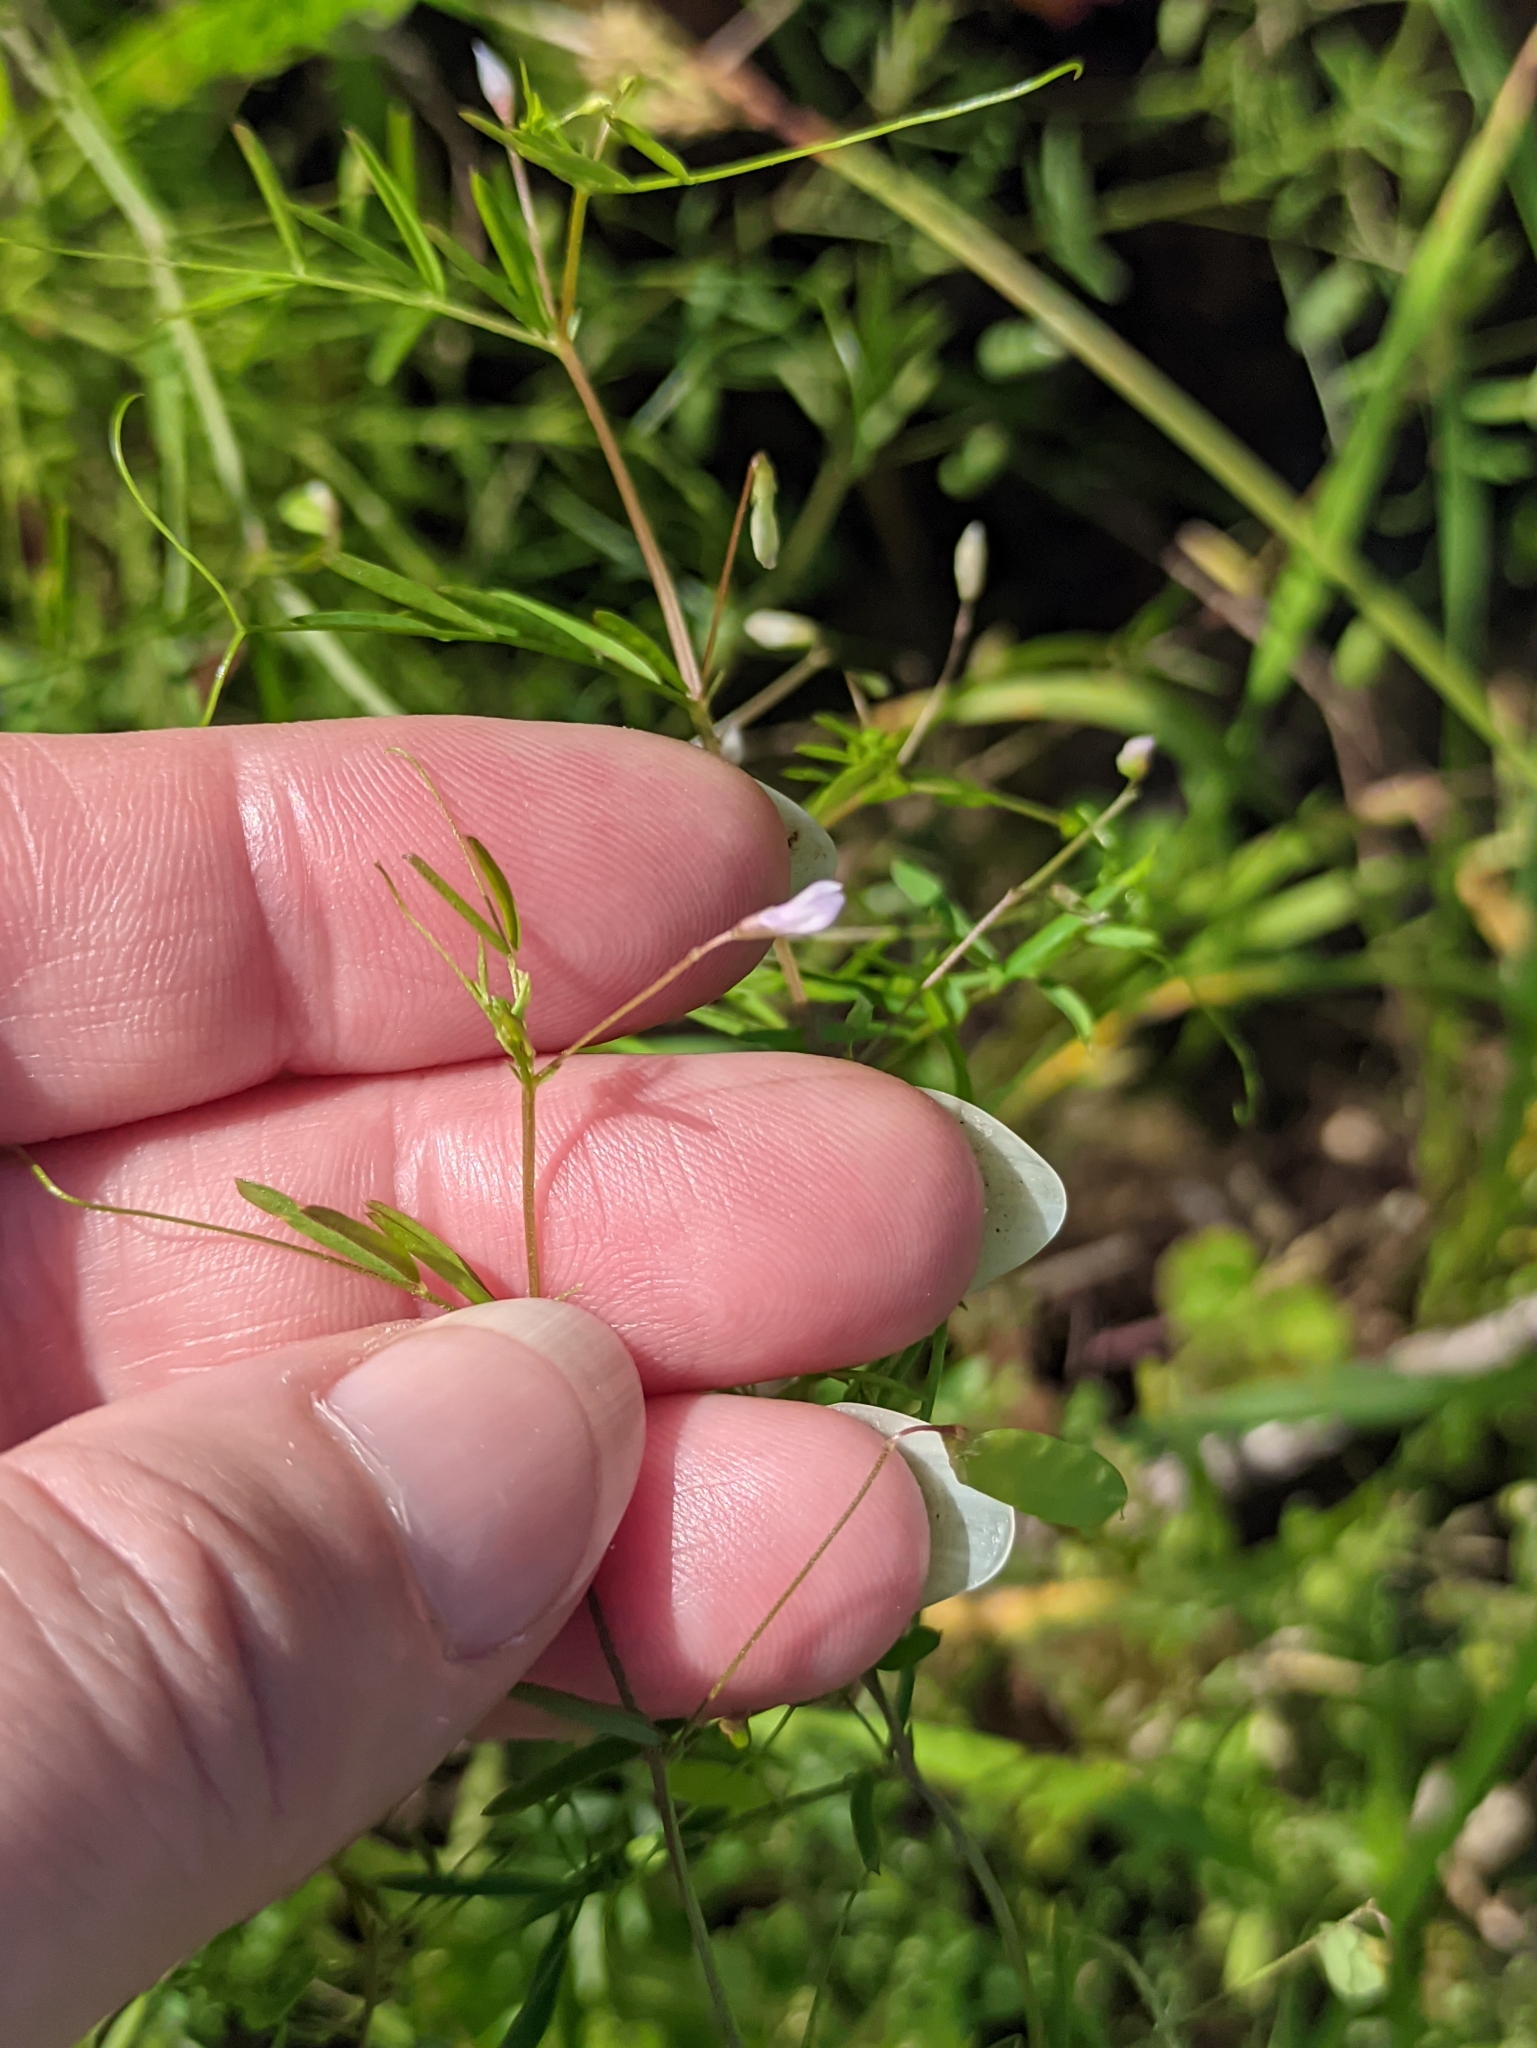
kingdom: Plantae
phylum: Tracheophyta
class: Magnoliopsida
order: Fabales
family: Fabaceae
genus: Vicia
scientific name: Vicia tetrasperma
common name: Smooth tare
